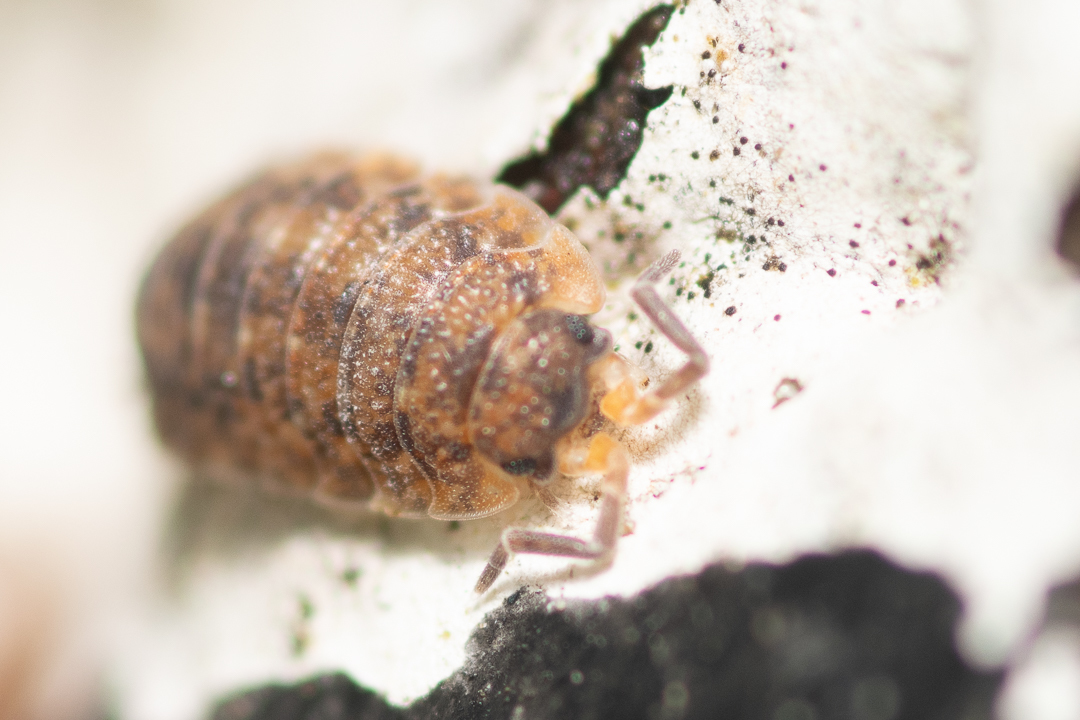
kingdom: Animalia
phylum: Arthropoda
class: Malacostraca
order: Isopoda
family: Porcellionidae
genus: Porcellio
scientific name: Porcellio scaber
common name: Common rough woodlouse
